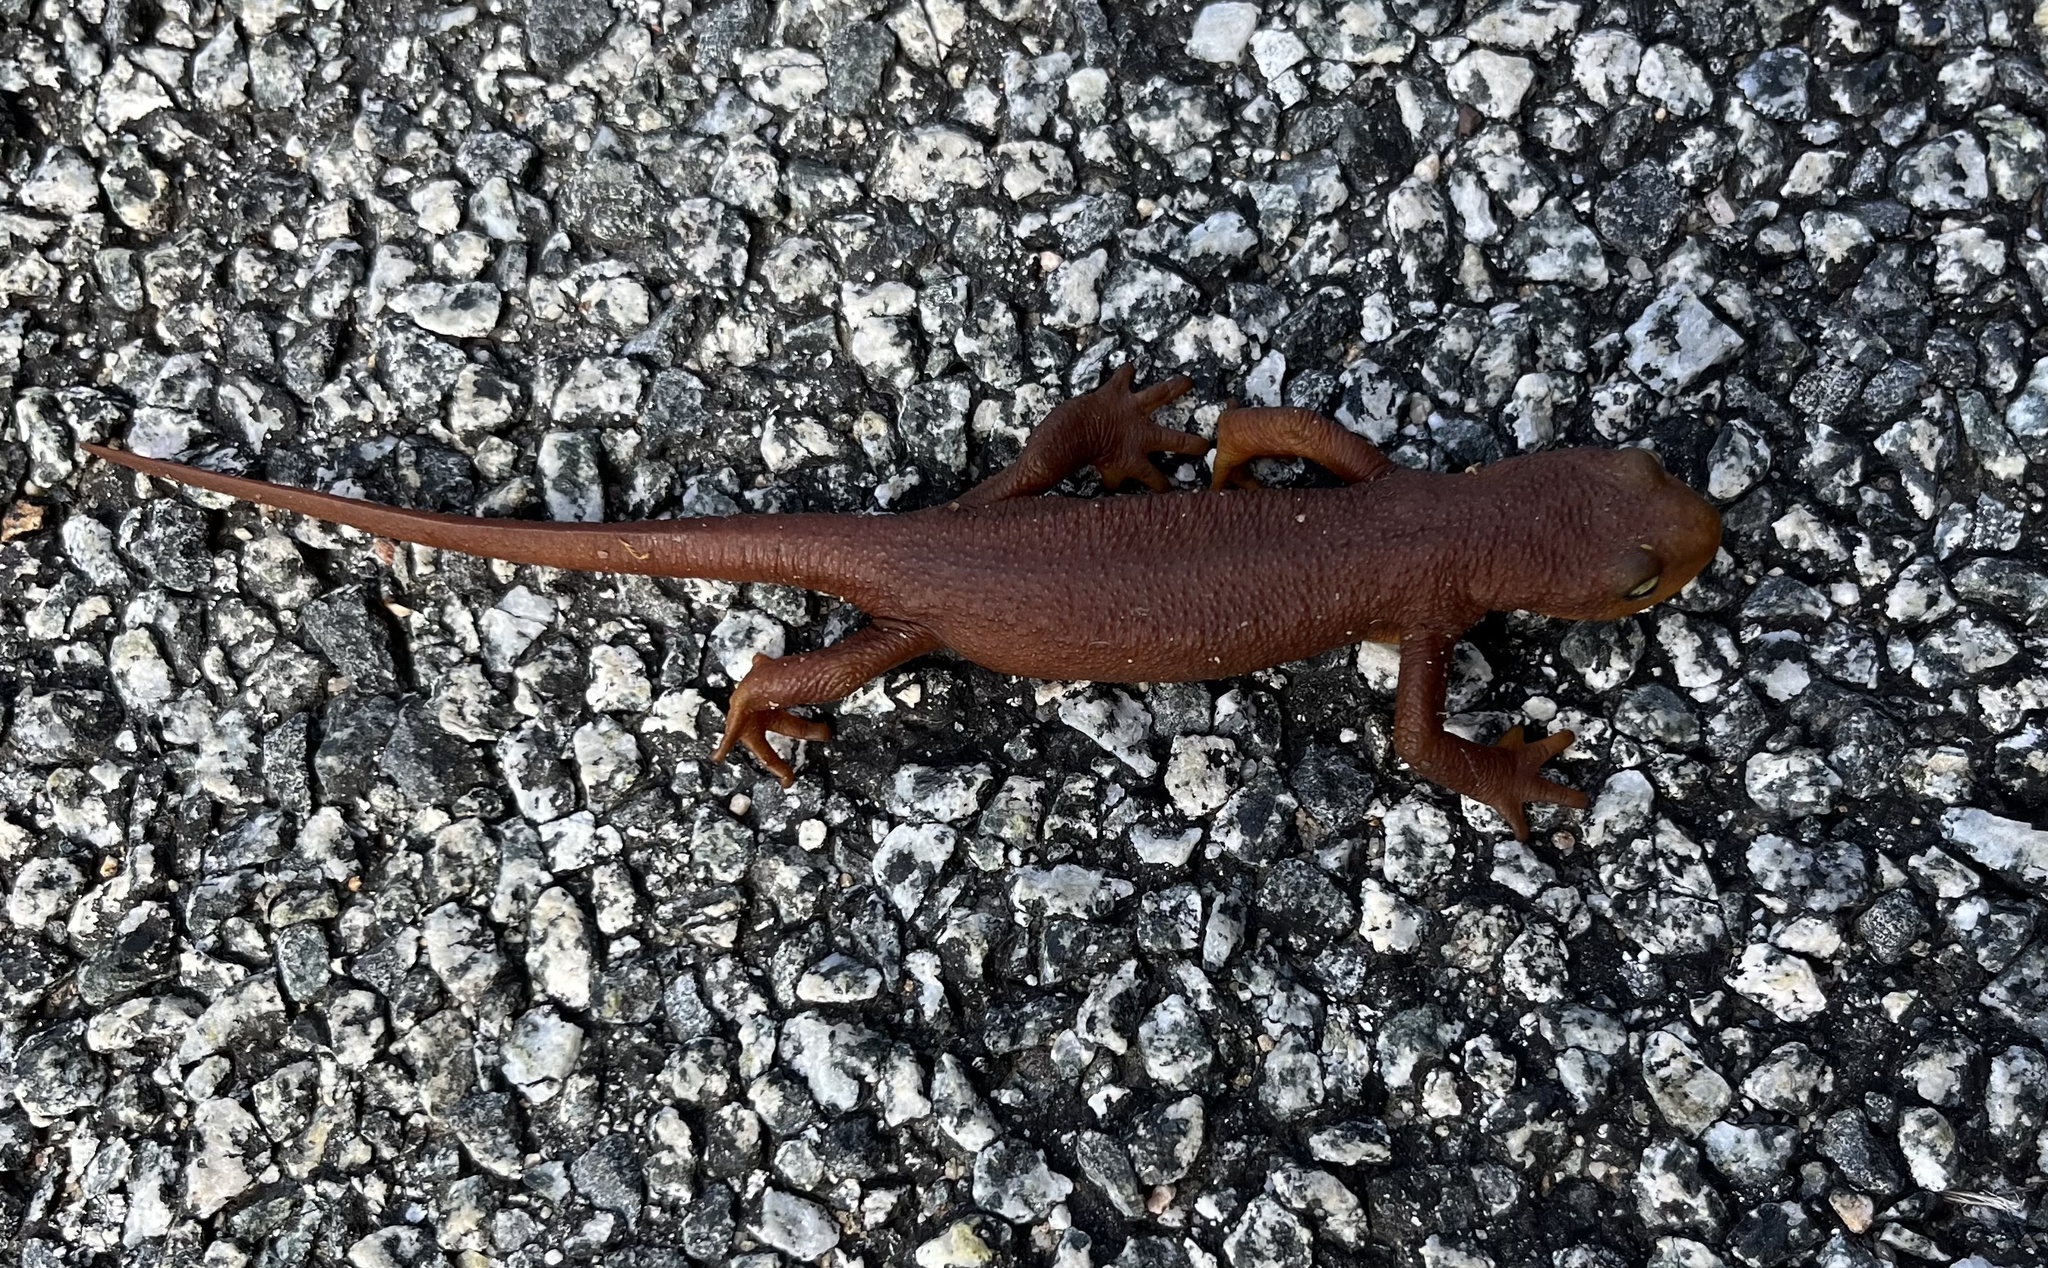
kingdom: Animalia
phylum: Chordata
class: Amphibia
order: Caudata
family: Salamandridae
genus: Taricha
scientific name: Taricha torosa
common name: California newt
